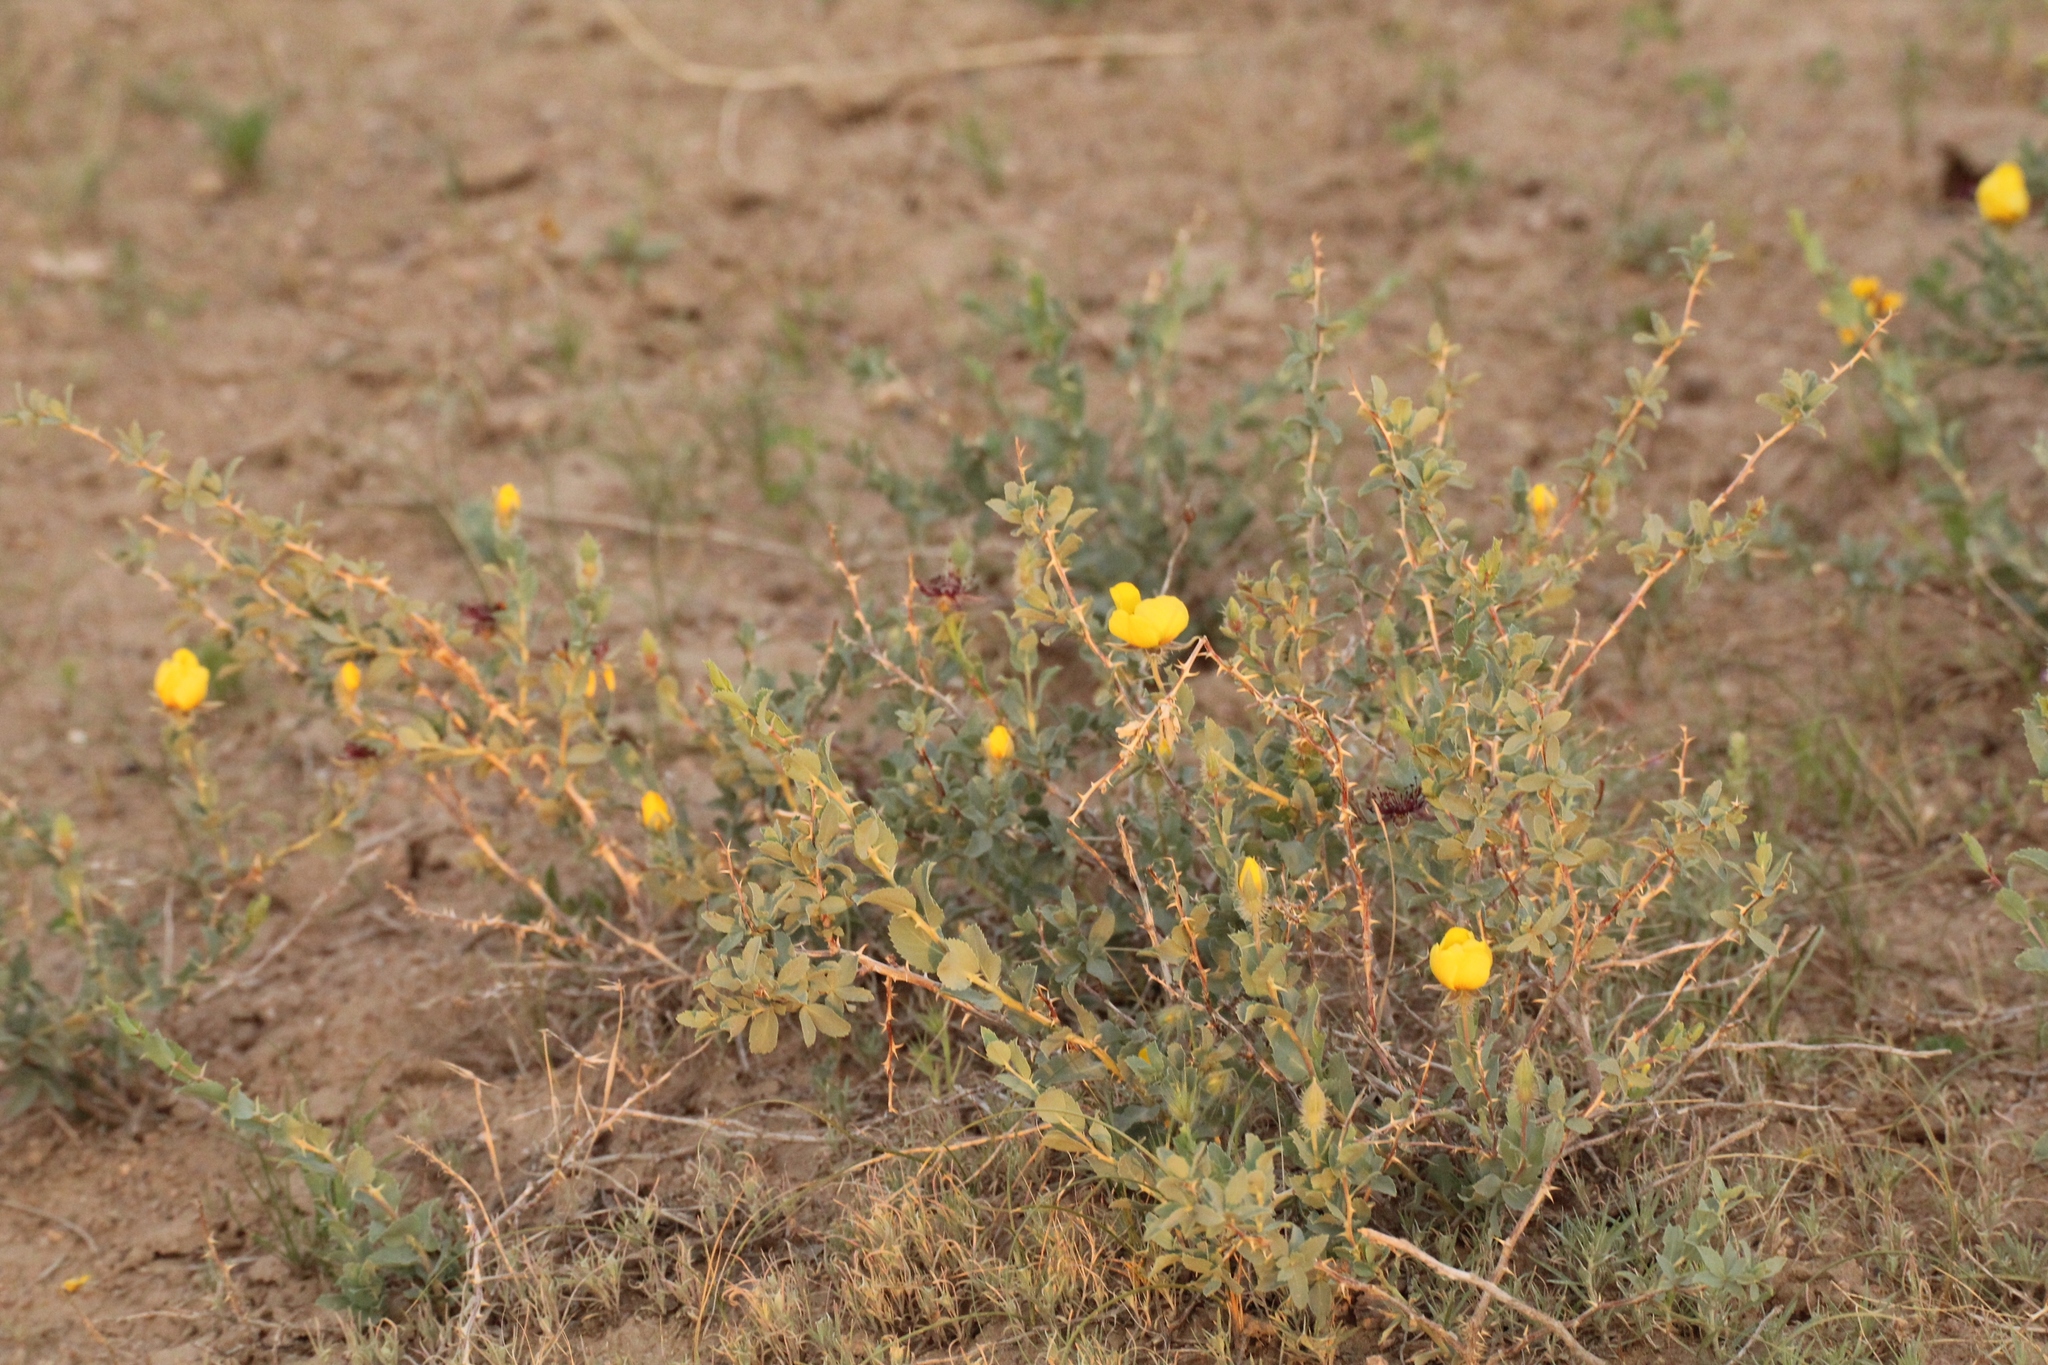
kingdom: Plantae
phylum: Tracheophyta
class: Magnoliopsida
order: Rosales
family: Rosaceae
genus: Rosa
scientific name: Rosa persica
